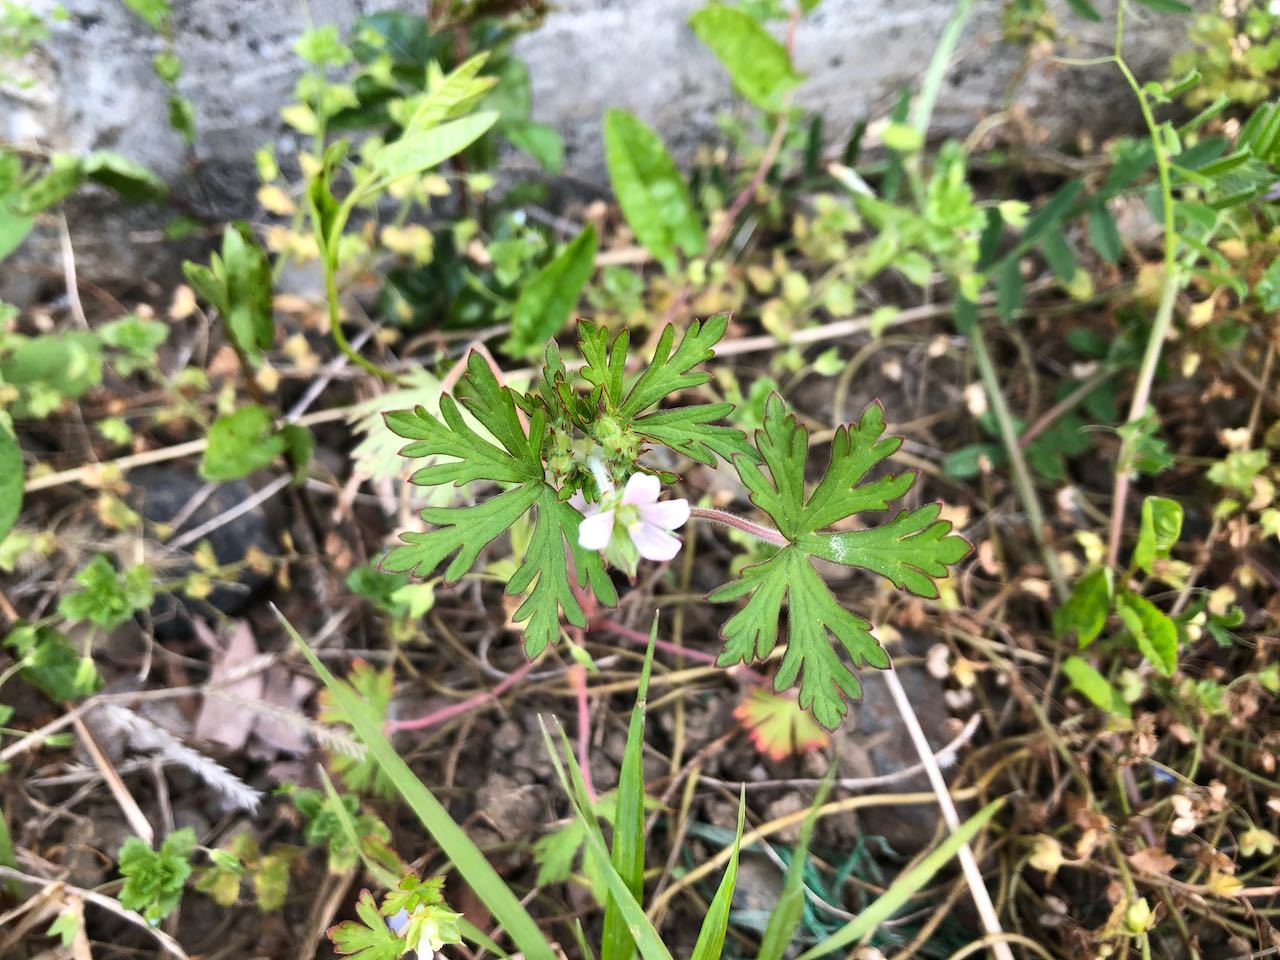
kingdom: Plantae
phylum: Tracheophyta
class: Magnoliopsida
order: Geraniales
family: Geraniaceae
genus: Geranium
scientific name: Geranium carolinianum
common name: Carolina crane's-bill
